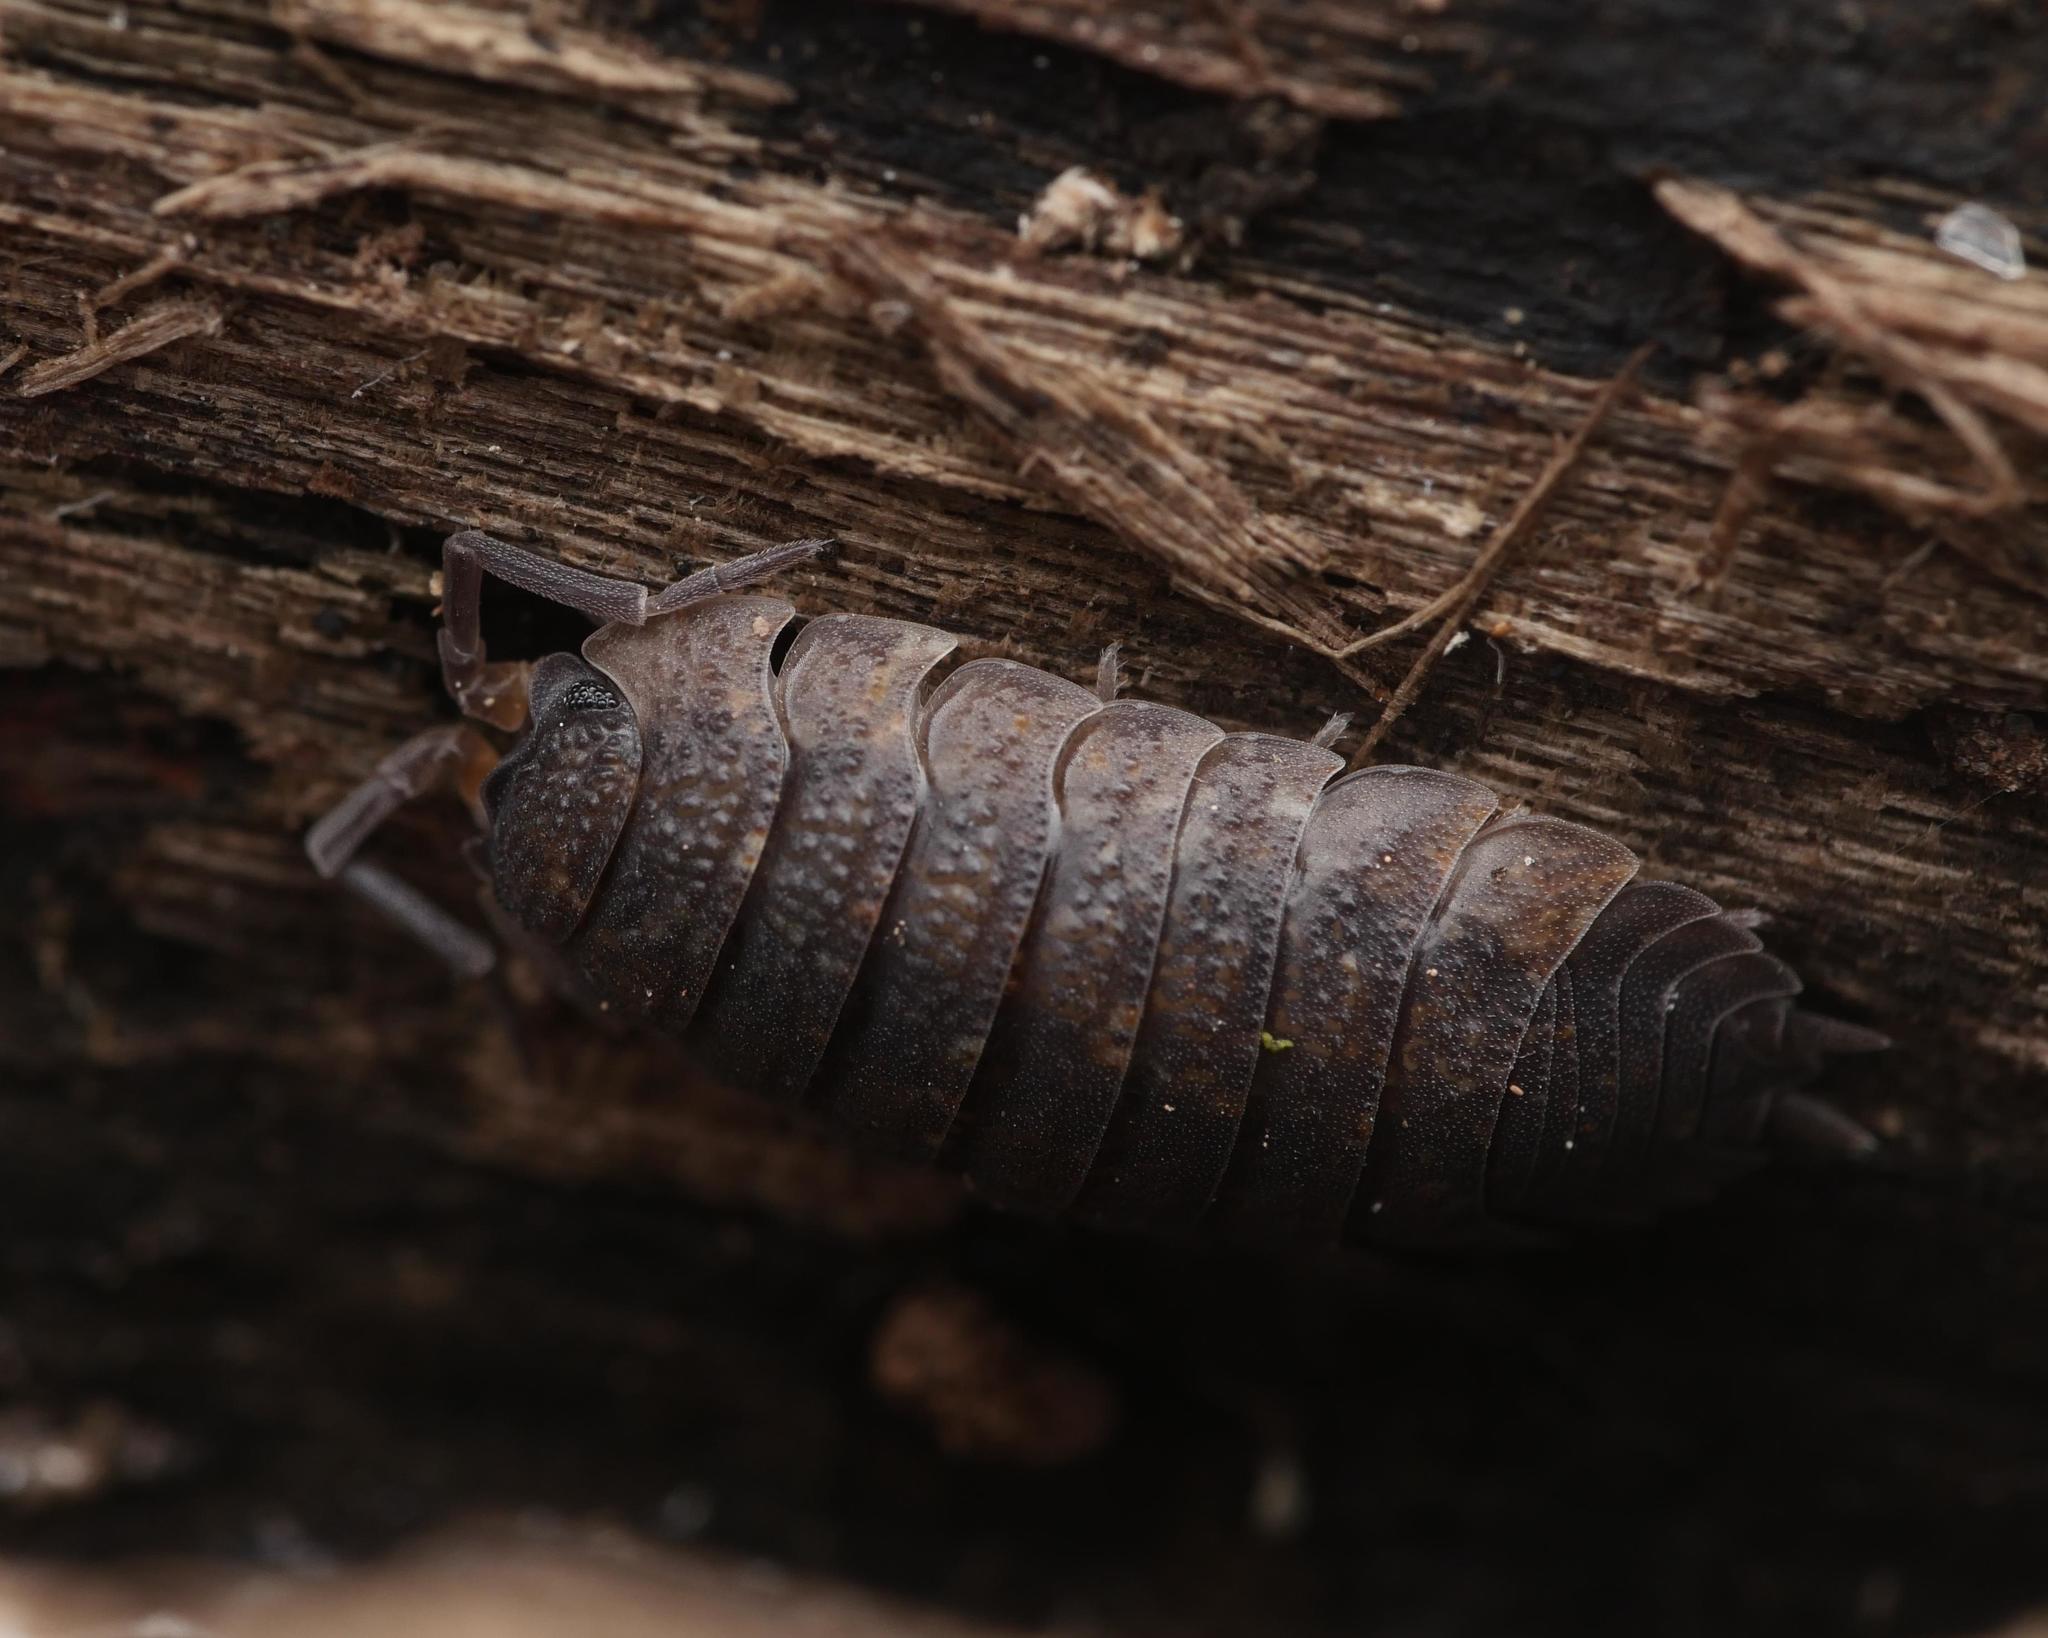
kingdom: Animalia
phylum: Arthropoda
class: Malacostraca
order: Isopoda
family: Porcellionidae
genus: Porcellio
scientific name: Porcellio scaber
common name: Common rough woodlouse
